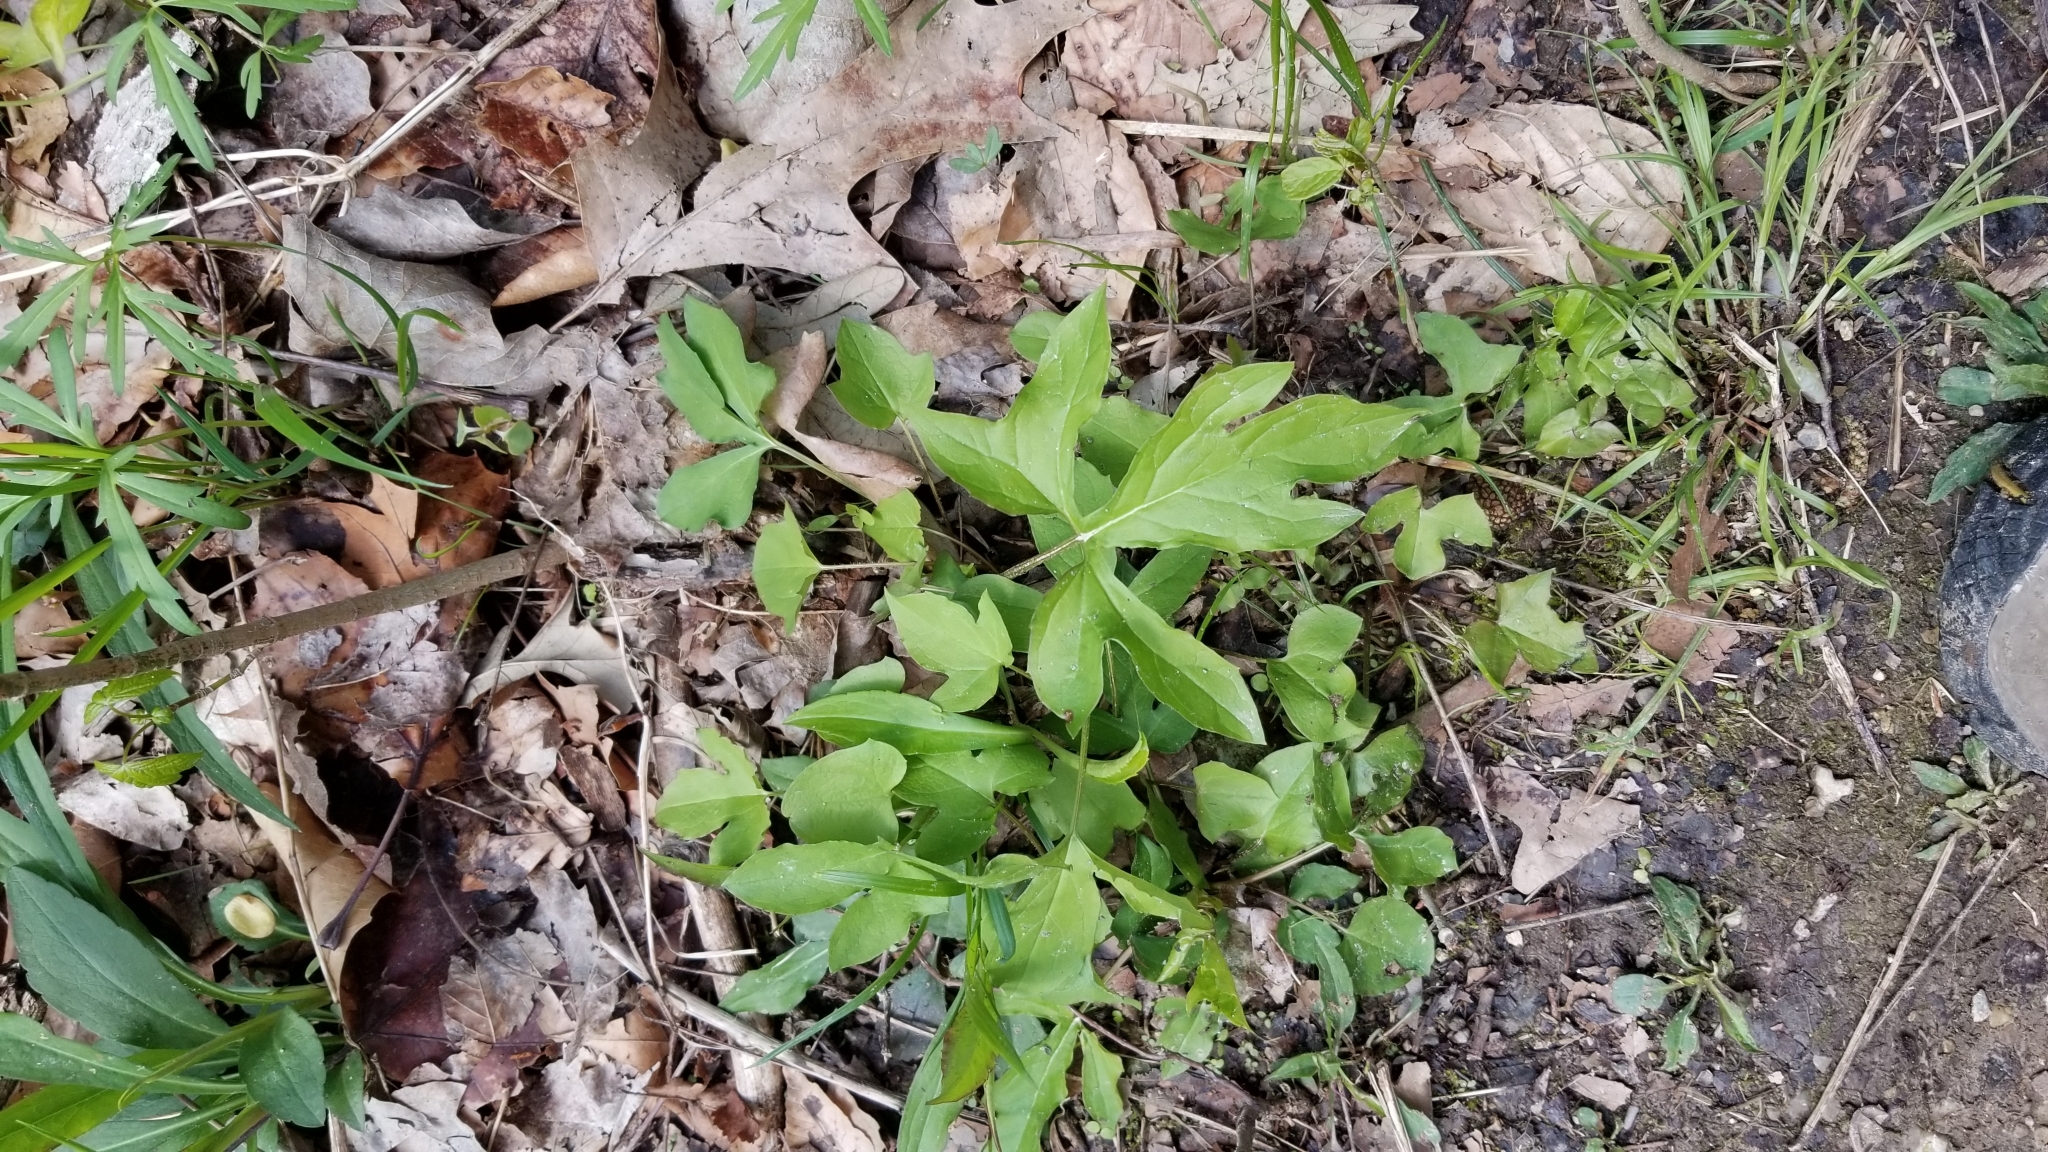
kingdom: Plantae
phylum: Tracheophyta
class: Magnoliopsida
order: Asterales
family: Asteraceae
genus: Rudbeckia
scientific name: Rudbeckia laciniata
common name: Coneflower
